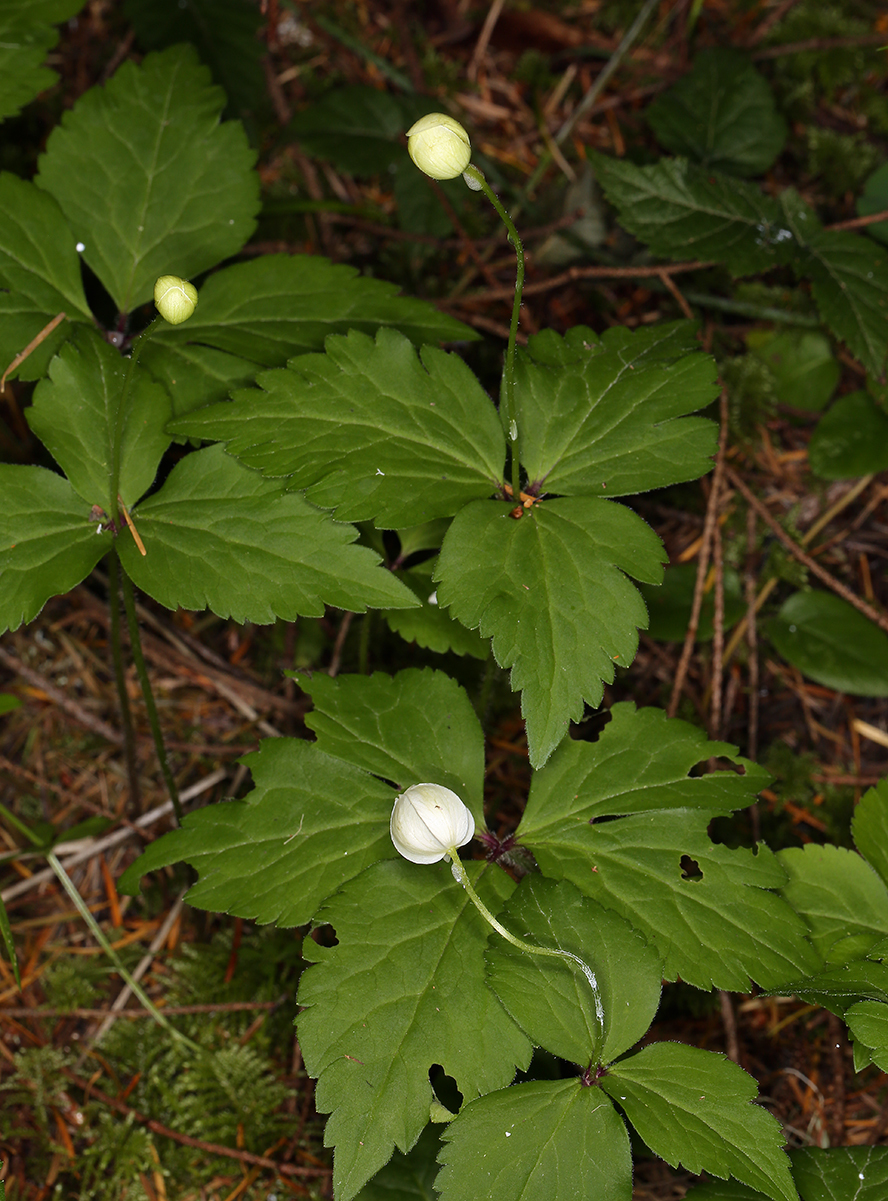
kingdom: Plantae
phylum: Tracheophyta
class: Magnoliopsida
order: Ranunculales
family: Ranunculaceae
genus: Anemonastrum
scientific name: Anemonastrum deltoideum
